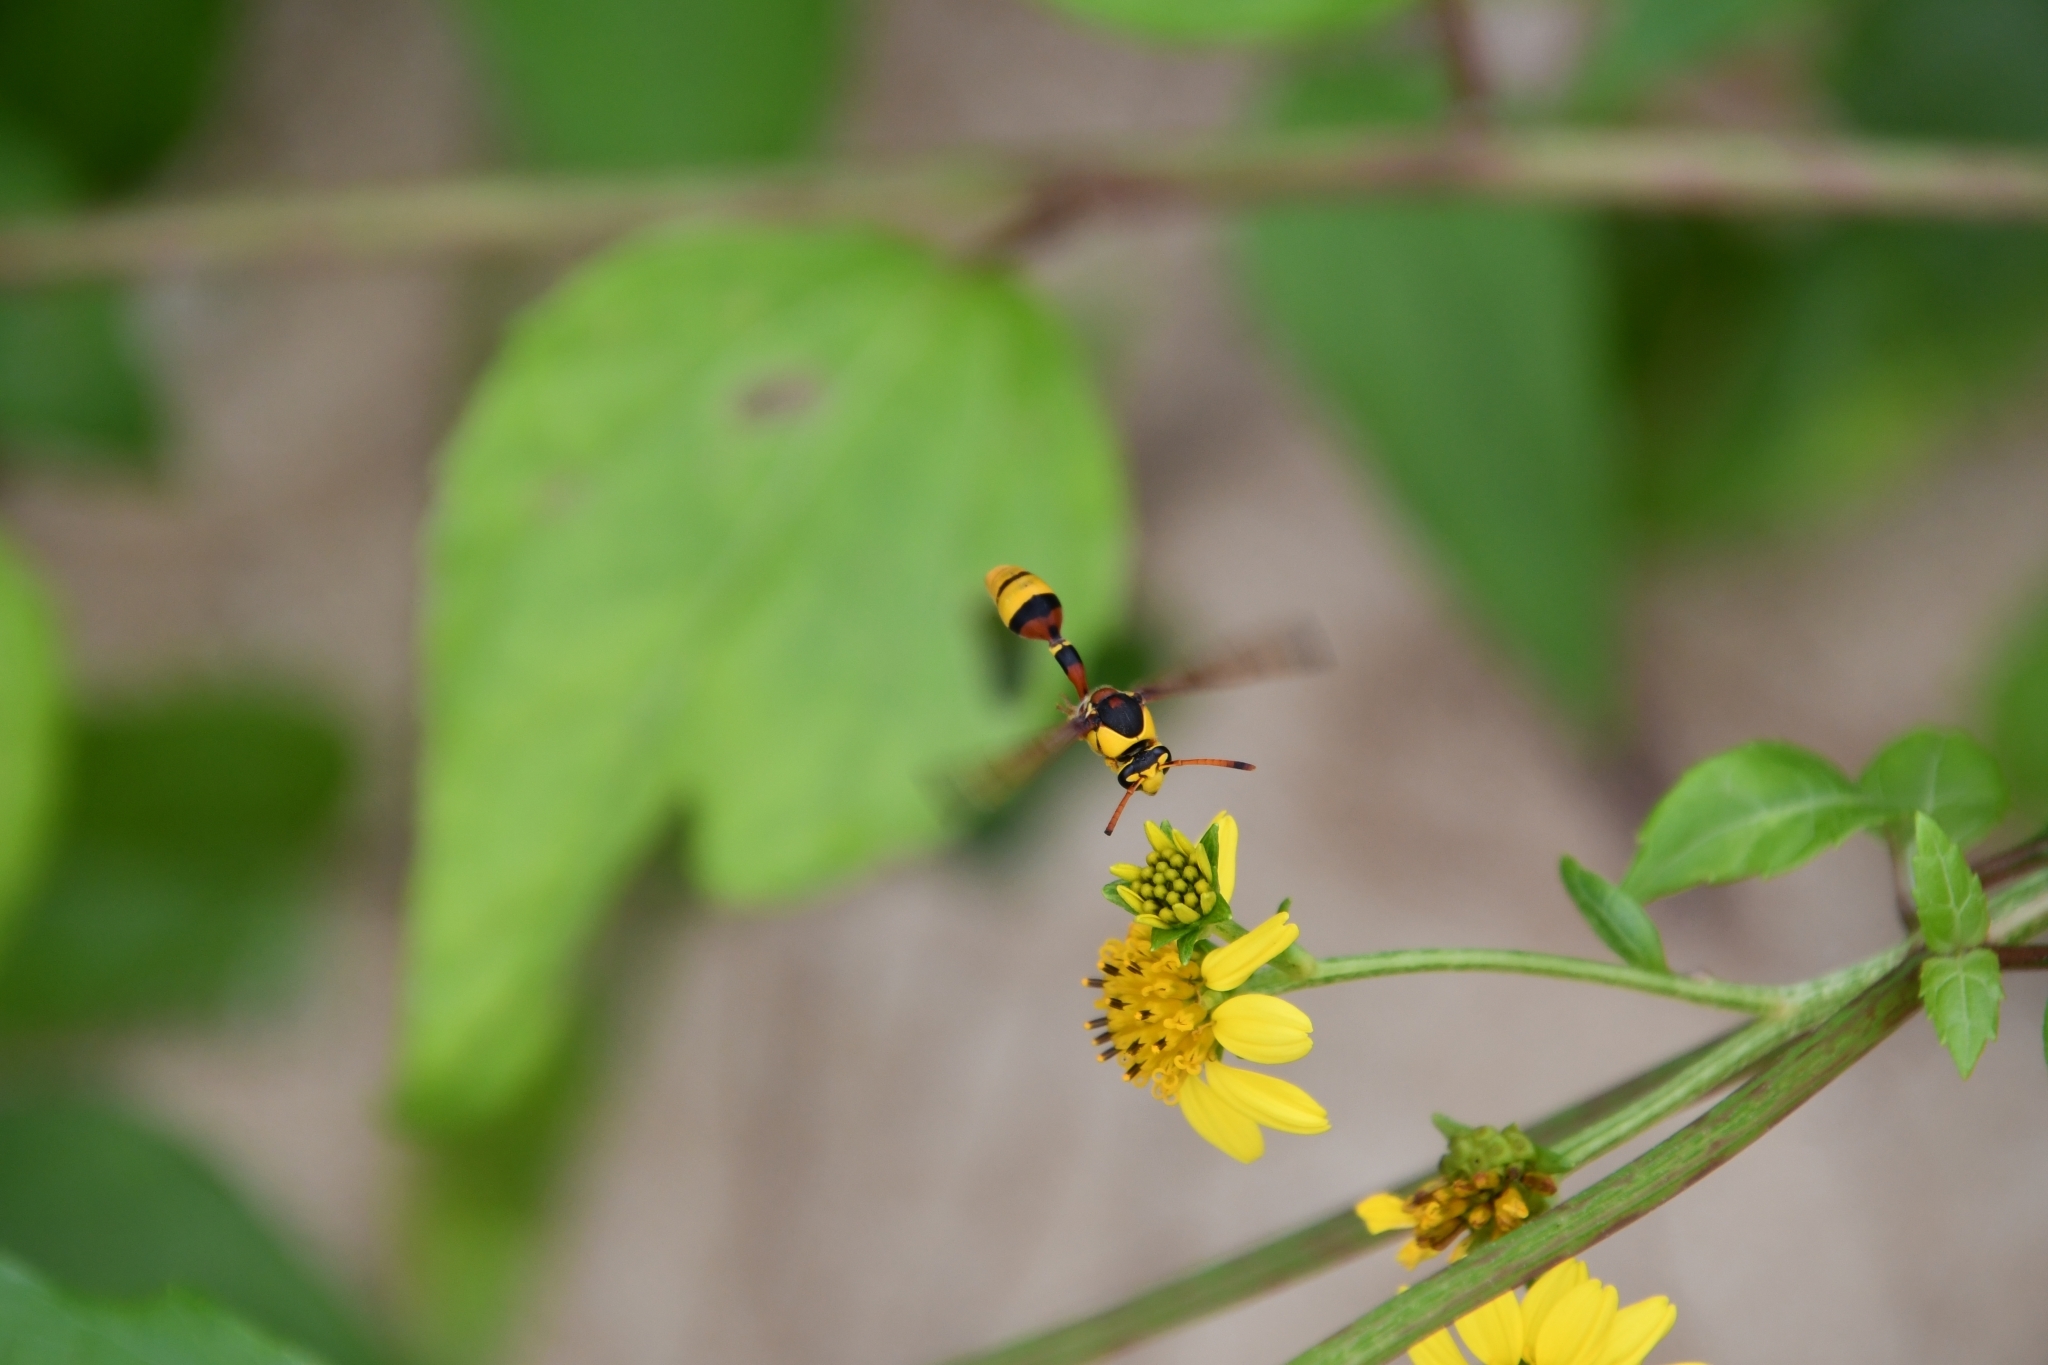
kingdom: Animalia
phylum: Arthropoda
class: Insecta
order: Hymenoptera
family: Eumenidae
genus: Delta
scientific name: Delta esuriens
